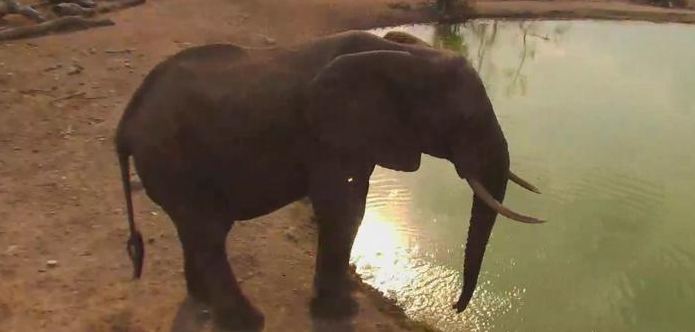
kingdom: Animalia
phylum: Chordata
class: Mammalia
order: Proboscidea
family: Elephantidae
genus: Loxodonta
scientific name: Loxodonta africana
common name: African elephant
